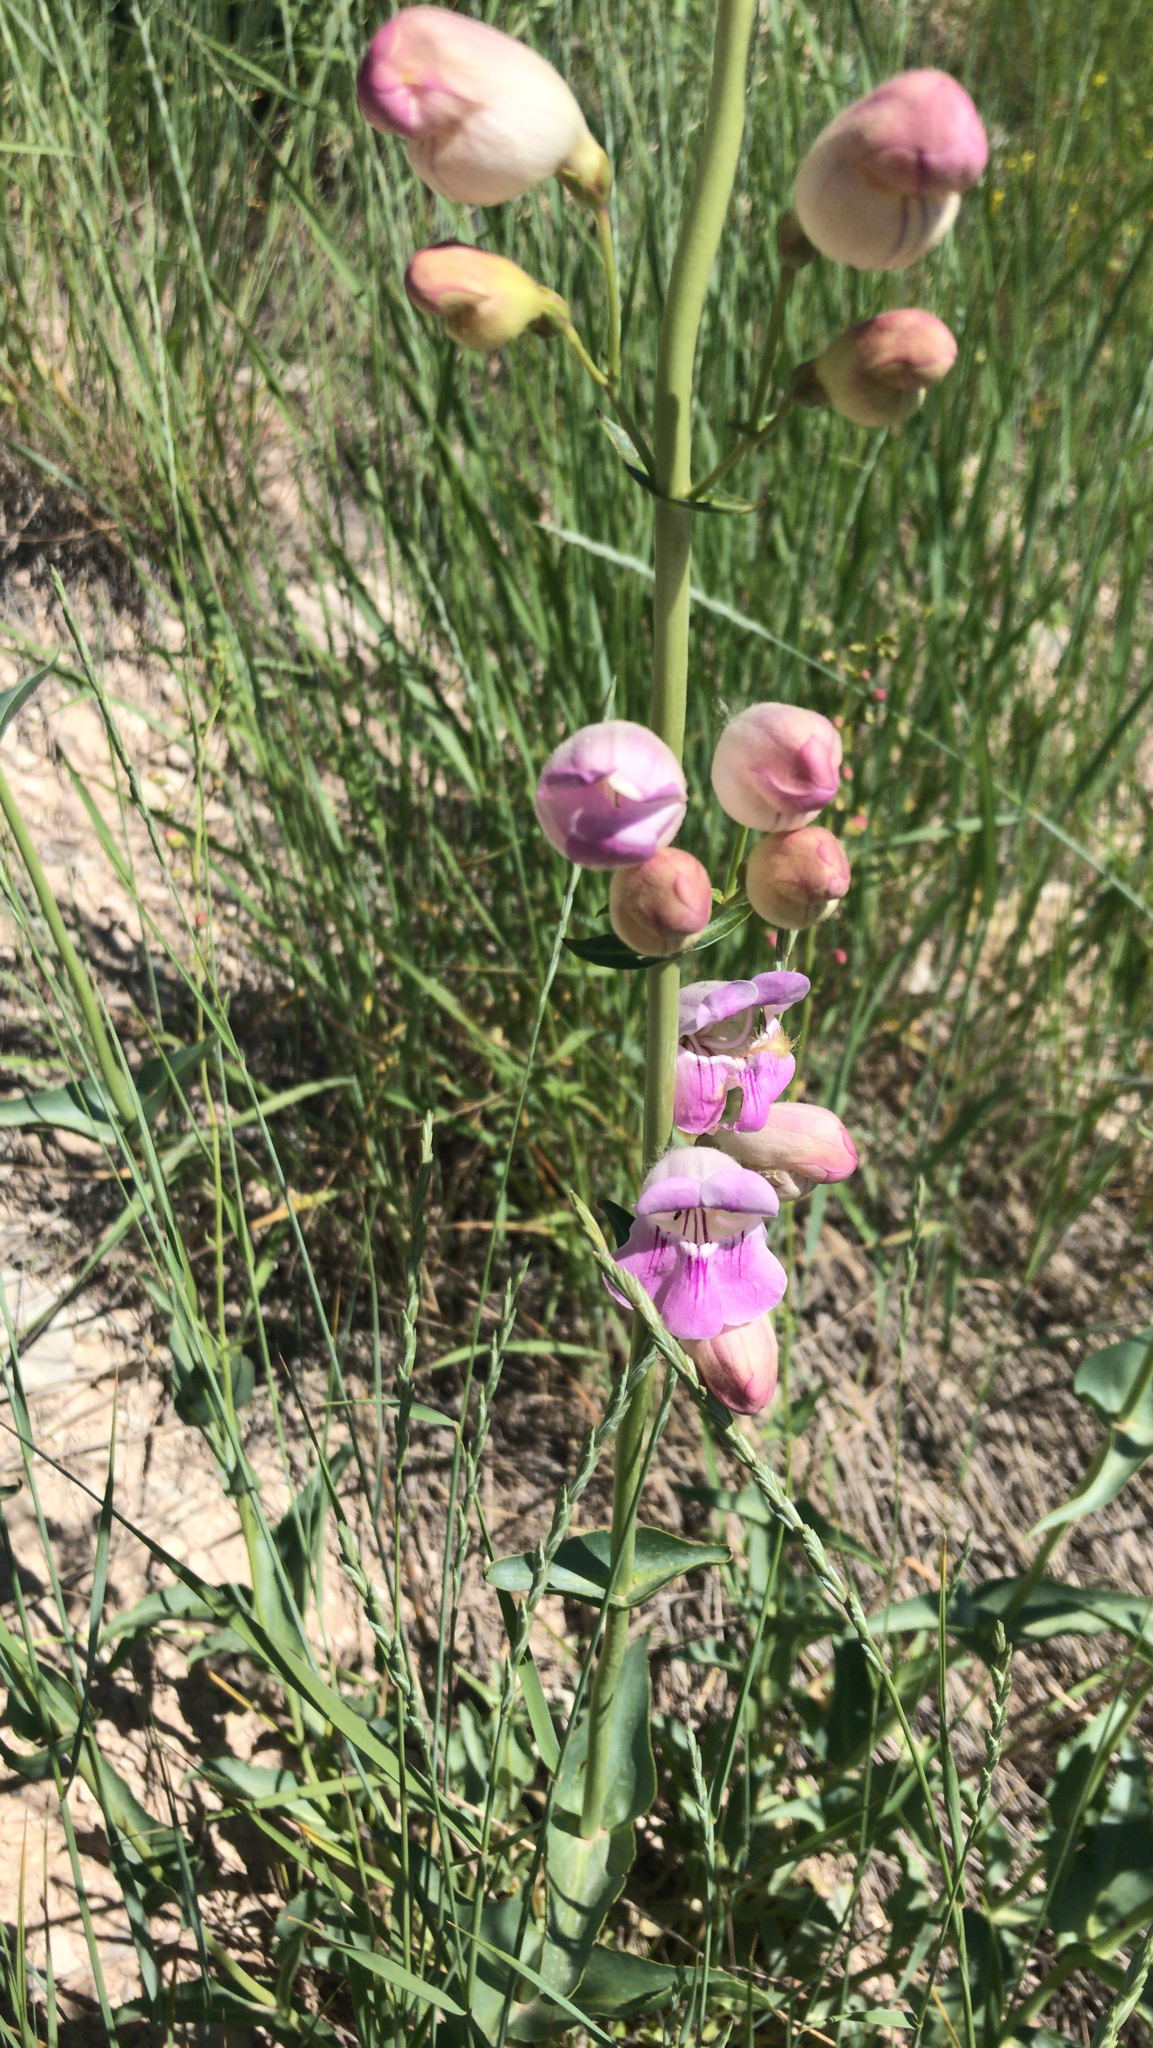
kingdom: Plantae
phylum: Tracheophyta
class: Magnoliopsida
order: Lamiales
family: Plantaginaceae
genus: Penstemon
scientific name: Penstemon palmeri
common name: Palmer penstemon
